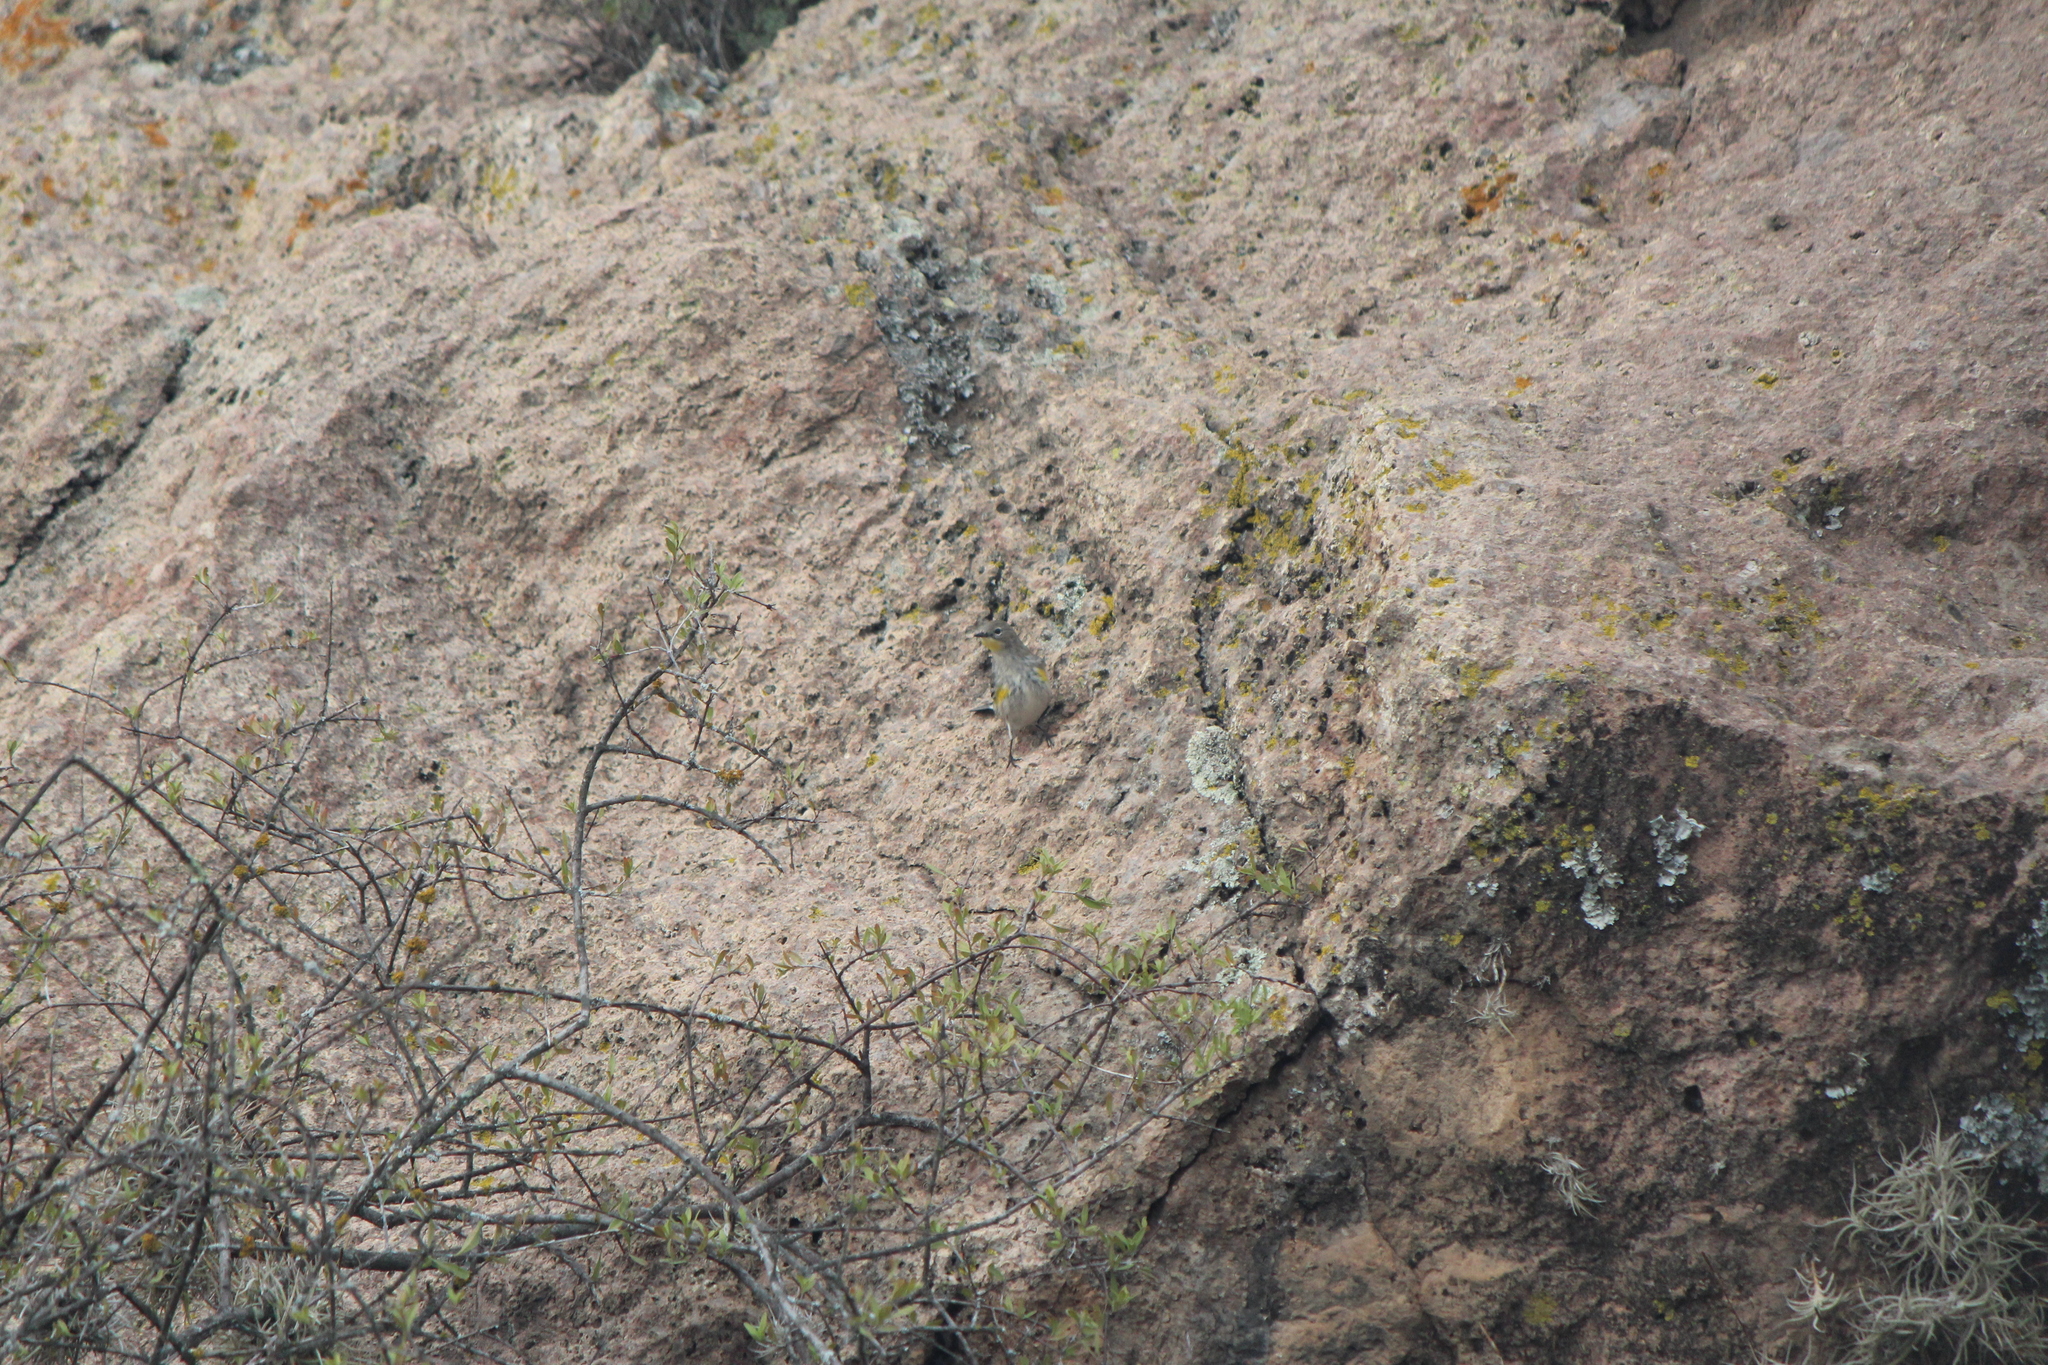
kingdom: Animalia
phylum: Chordata
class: Aves
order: Passeriformes
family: Parulidae
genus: Setophaga
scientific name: Setophaga coronata
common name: Myrtle warbler
